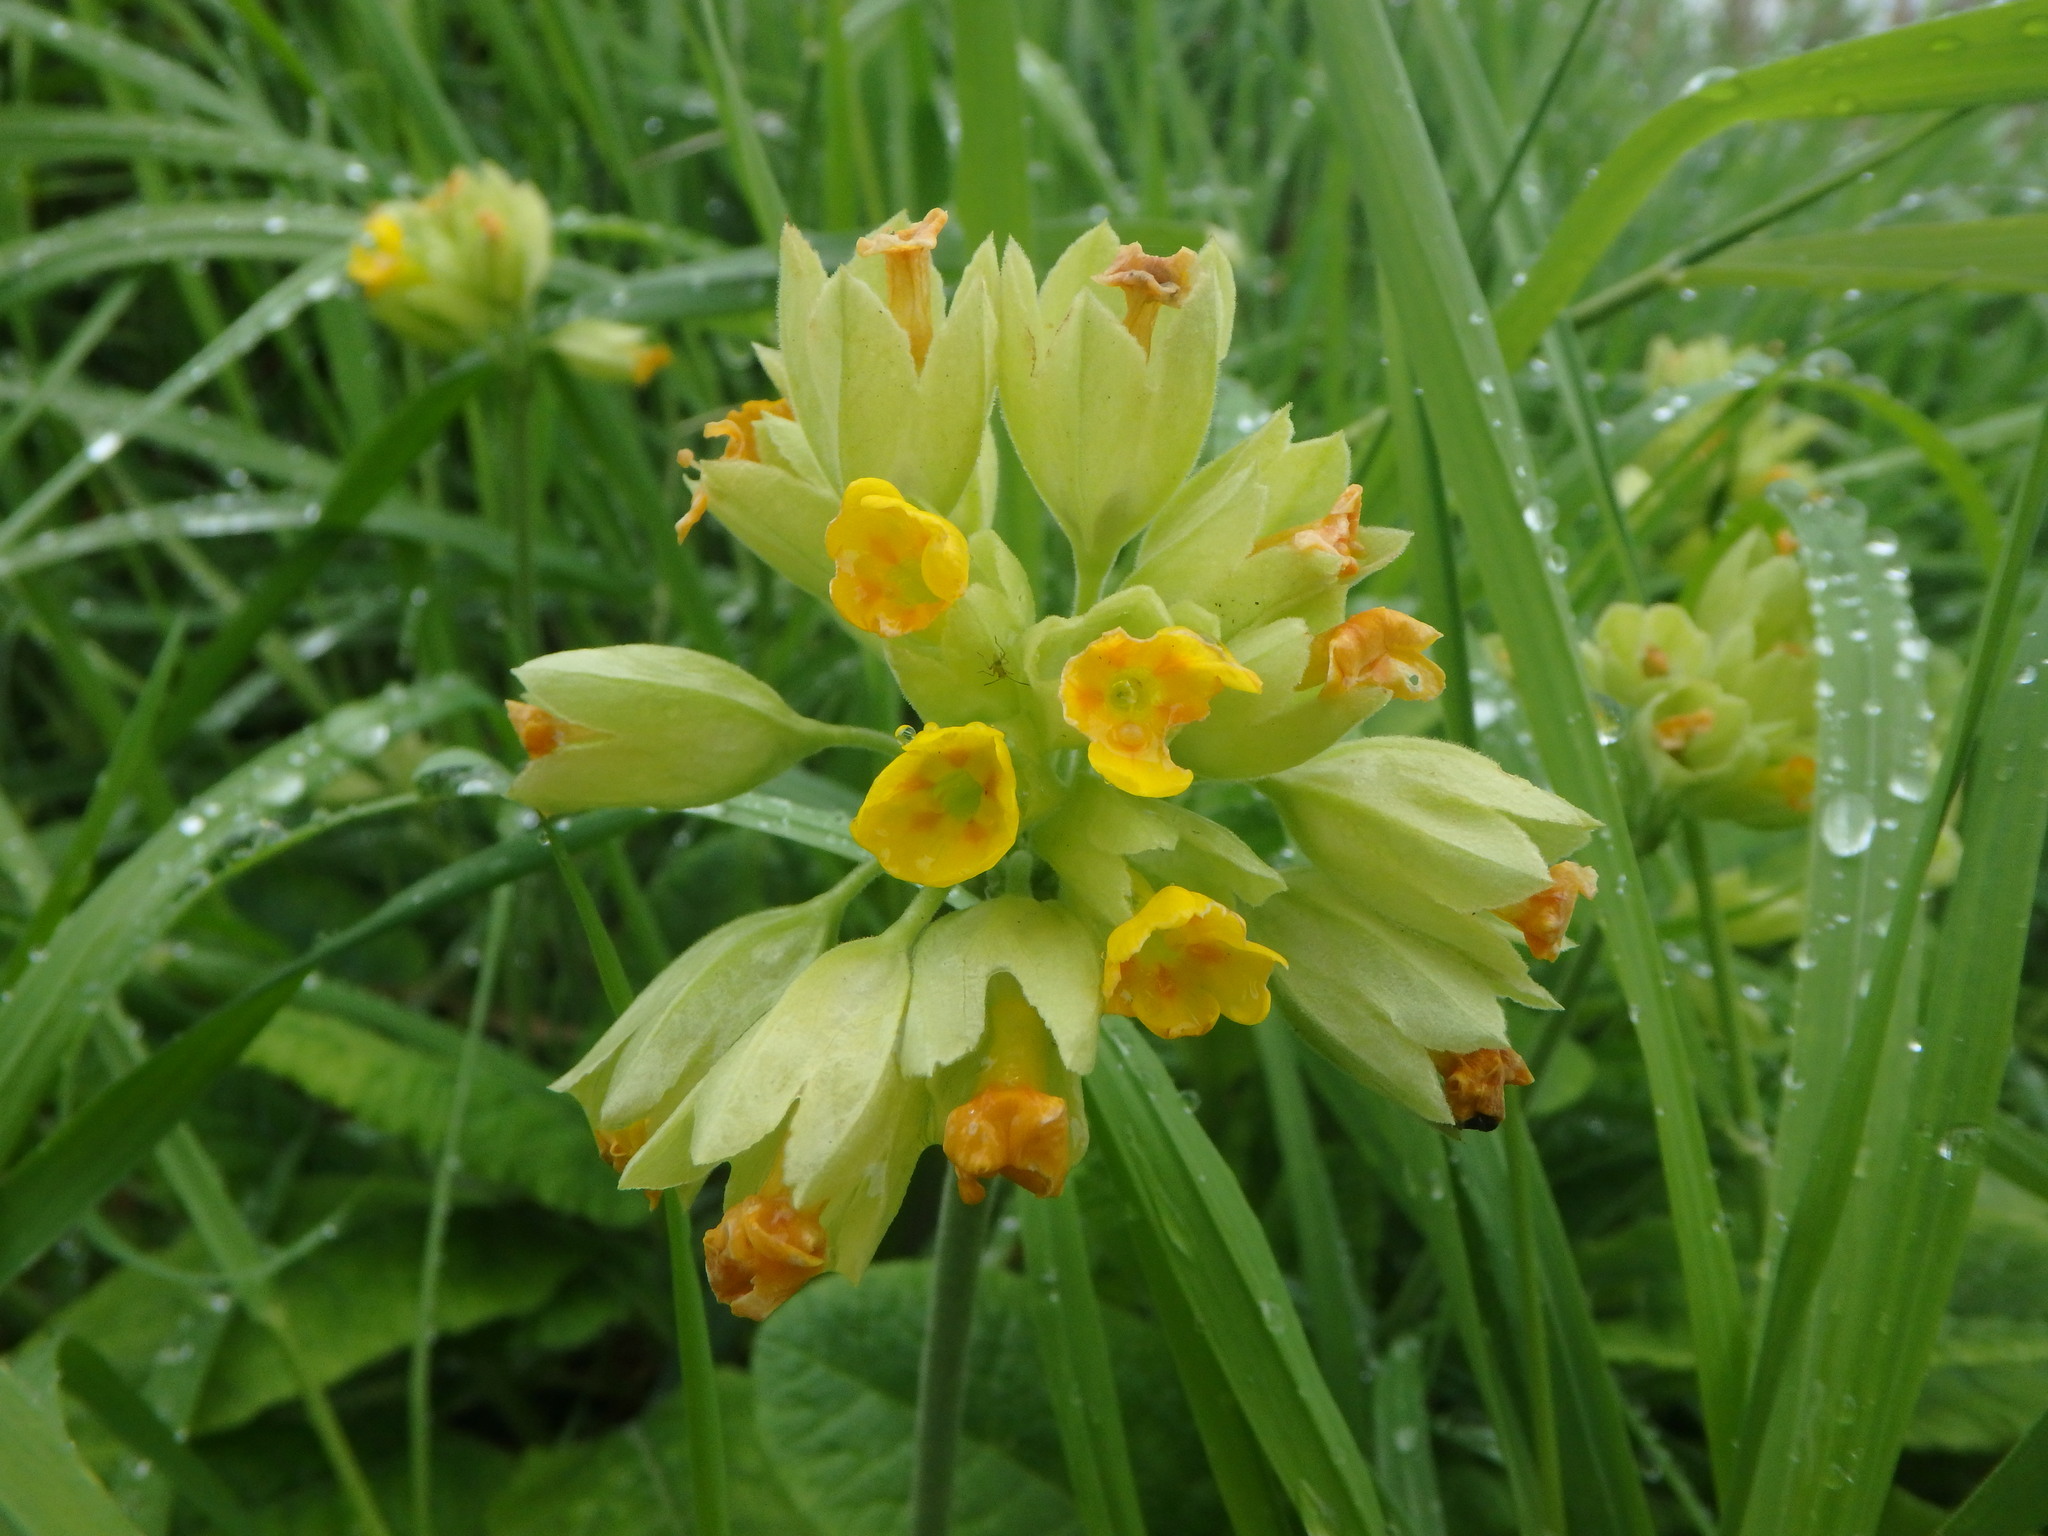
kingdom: Plantae
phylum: Tracheophyta
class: Magnoliopsida
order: Ericales
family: Primulaceae
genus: Primula
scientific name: Primula veris
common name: Cowslip
